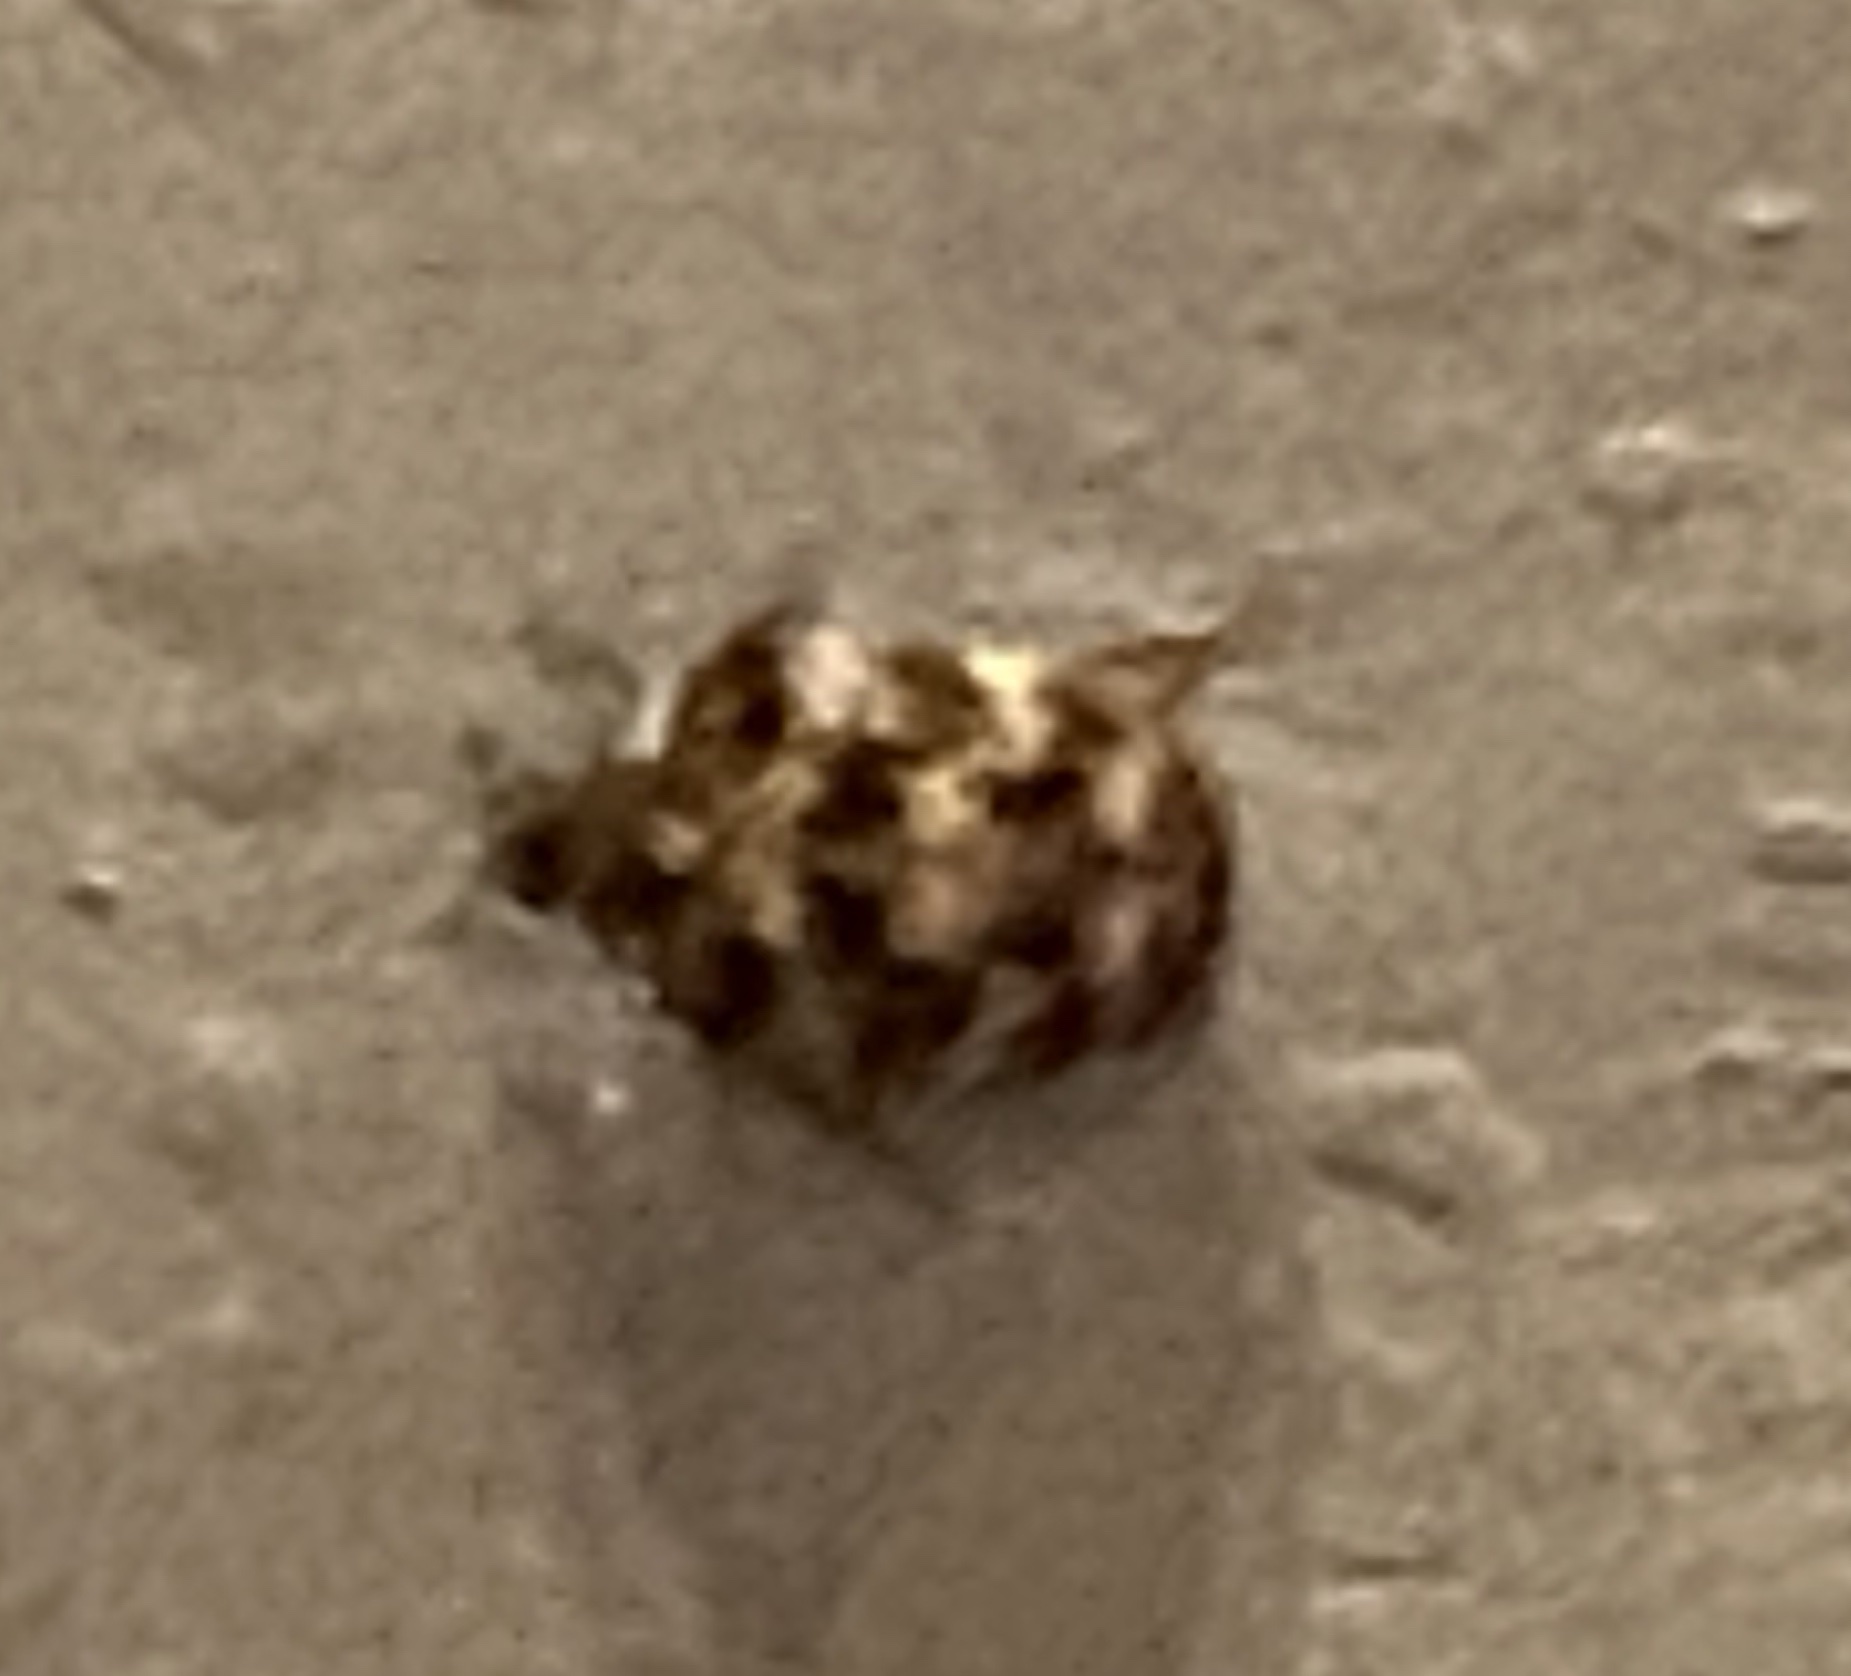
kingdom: Animalia
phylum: Arthropoda
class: Insecta
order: Coleoptera
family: Dermestidae
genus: Anthrenus
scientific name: Anthrenus verbasci
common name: Varied carpet beetle
